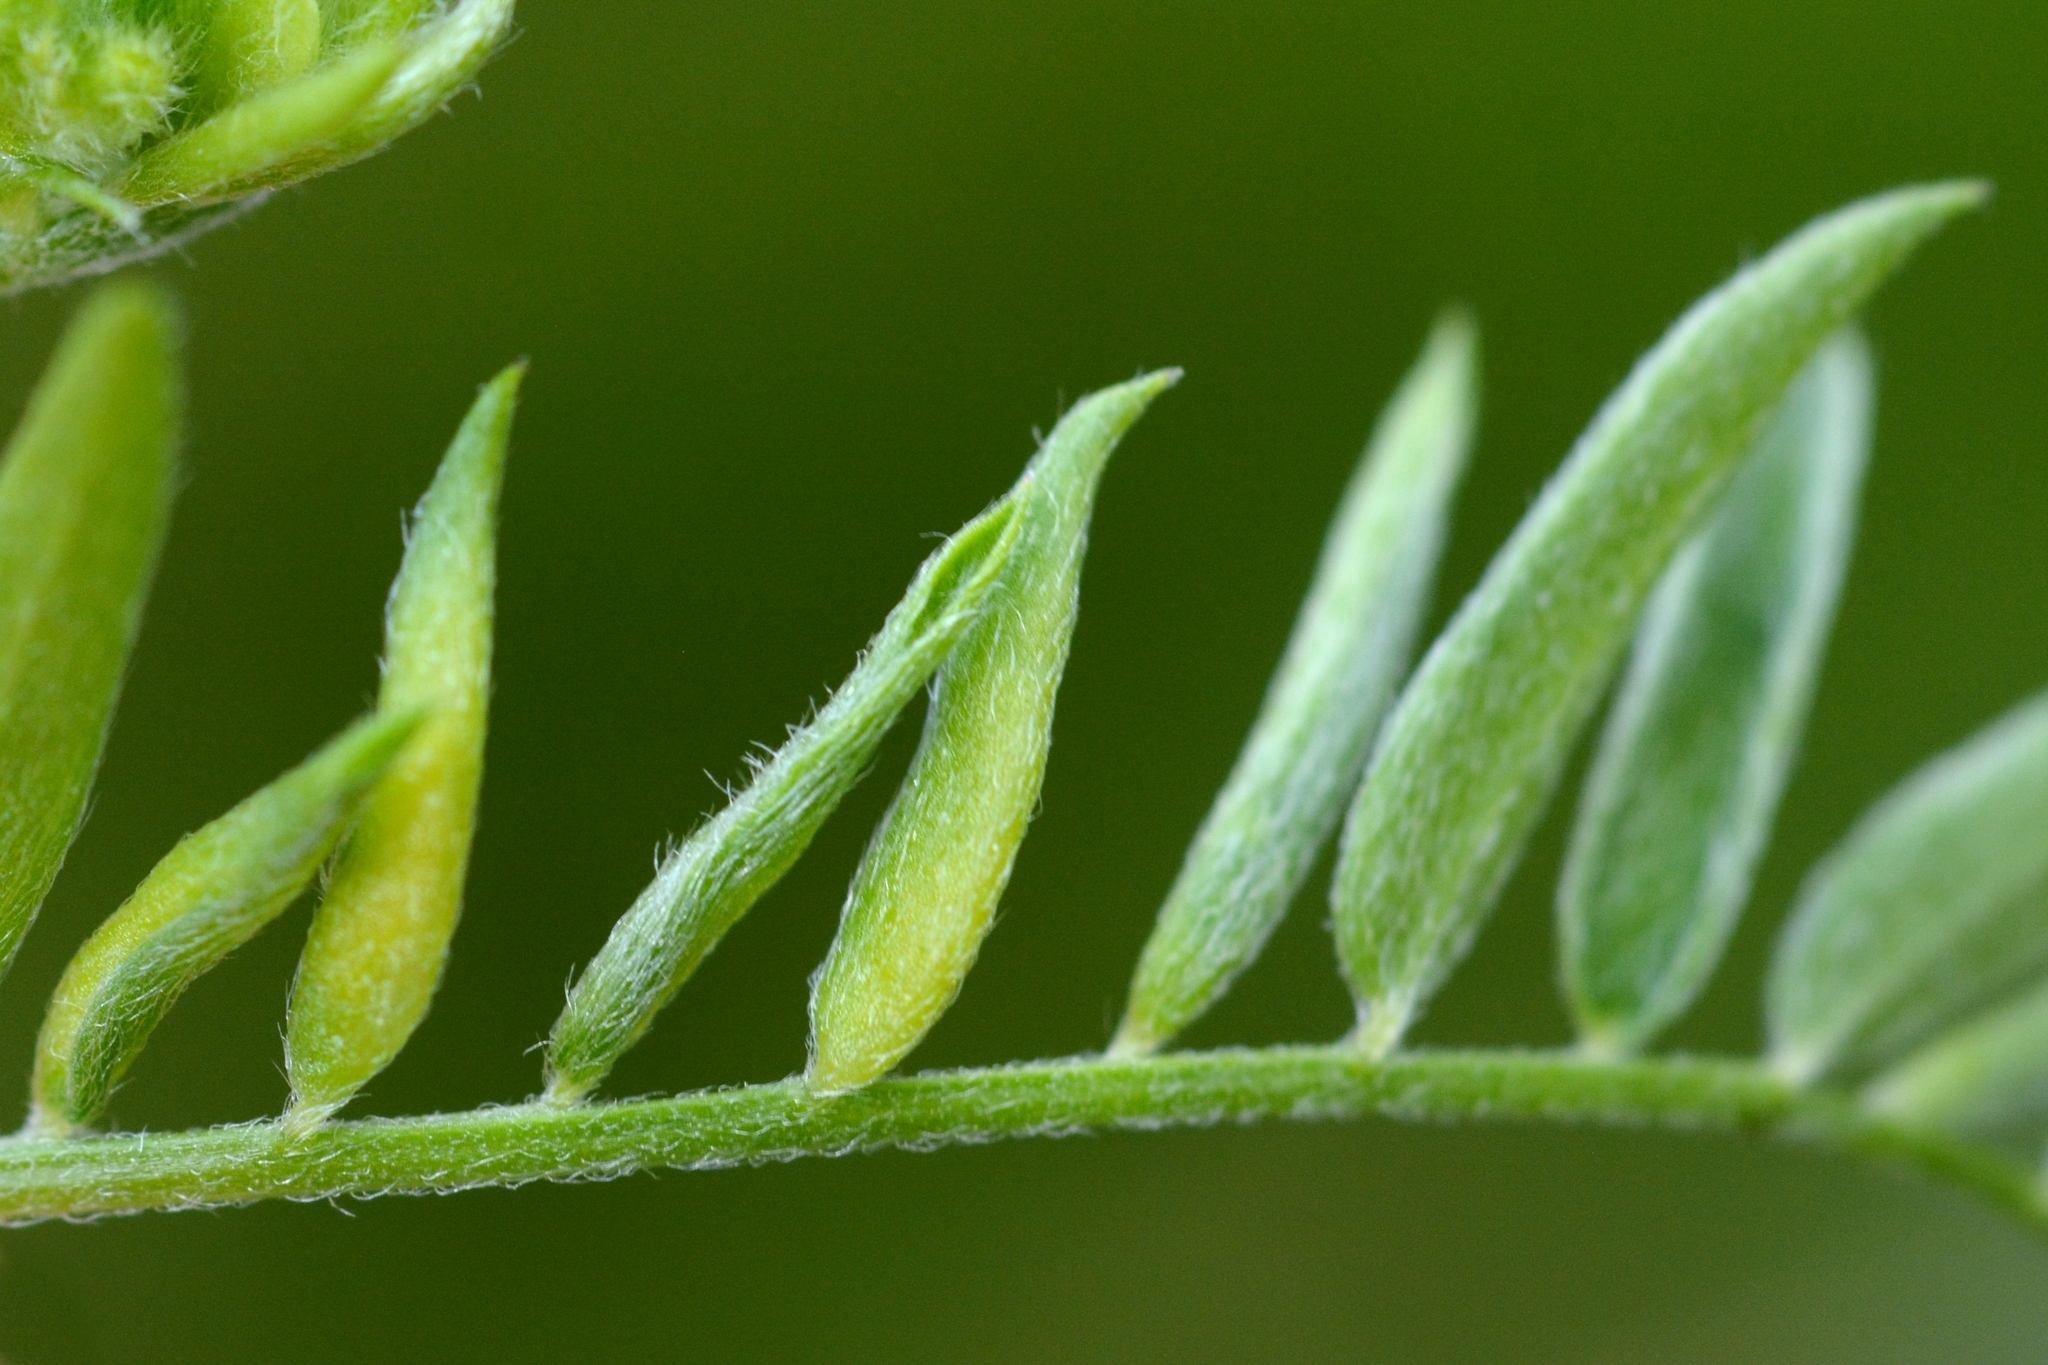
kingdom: Animalia
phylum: Arthropoda
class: Insecta
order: Diptera
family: Cecidomyiidae
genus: Dasineura
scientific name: Dasineura spadicea
